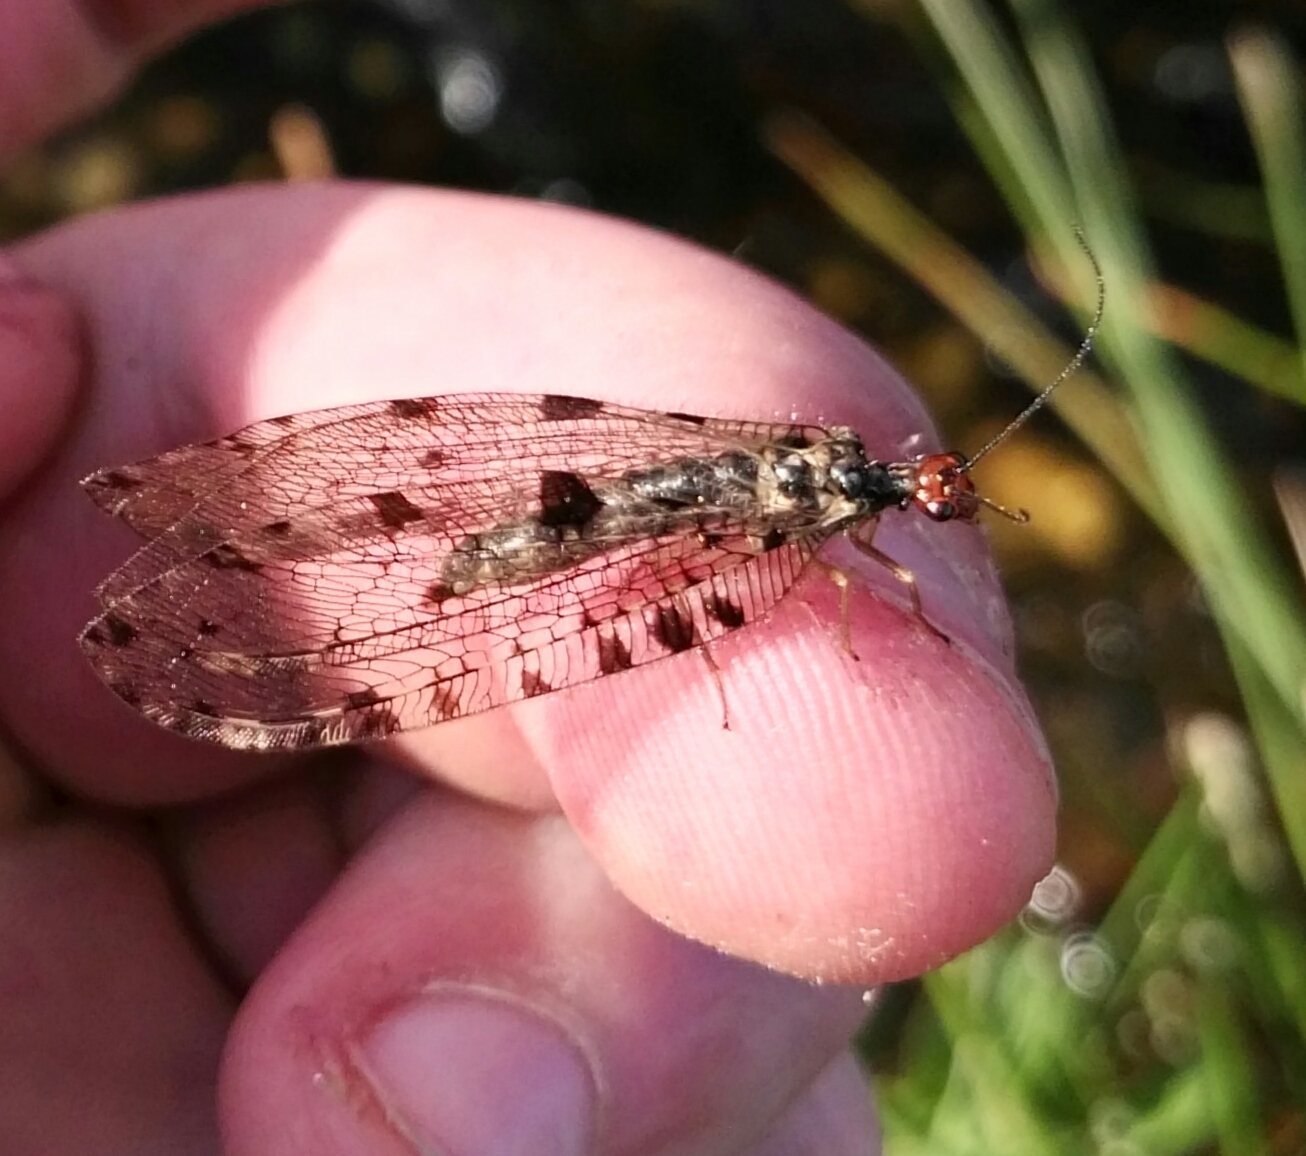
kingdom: Animalia
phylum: Arthropoda
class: Insecta
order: Neuroptera
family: Osmylidae
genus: Osmylus
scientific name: Osmylus fulvicephalus
